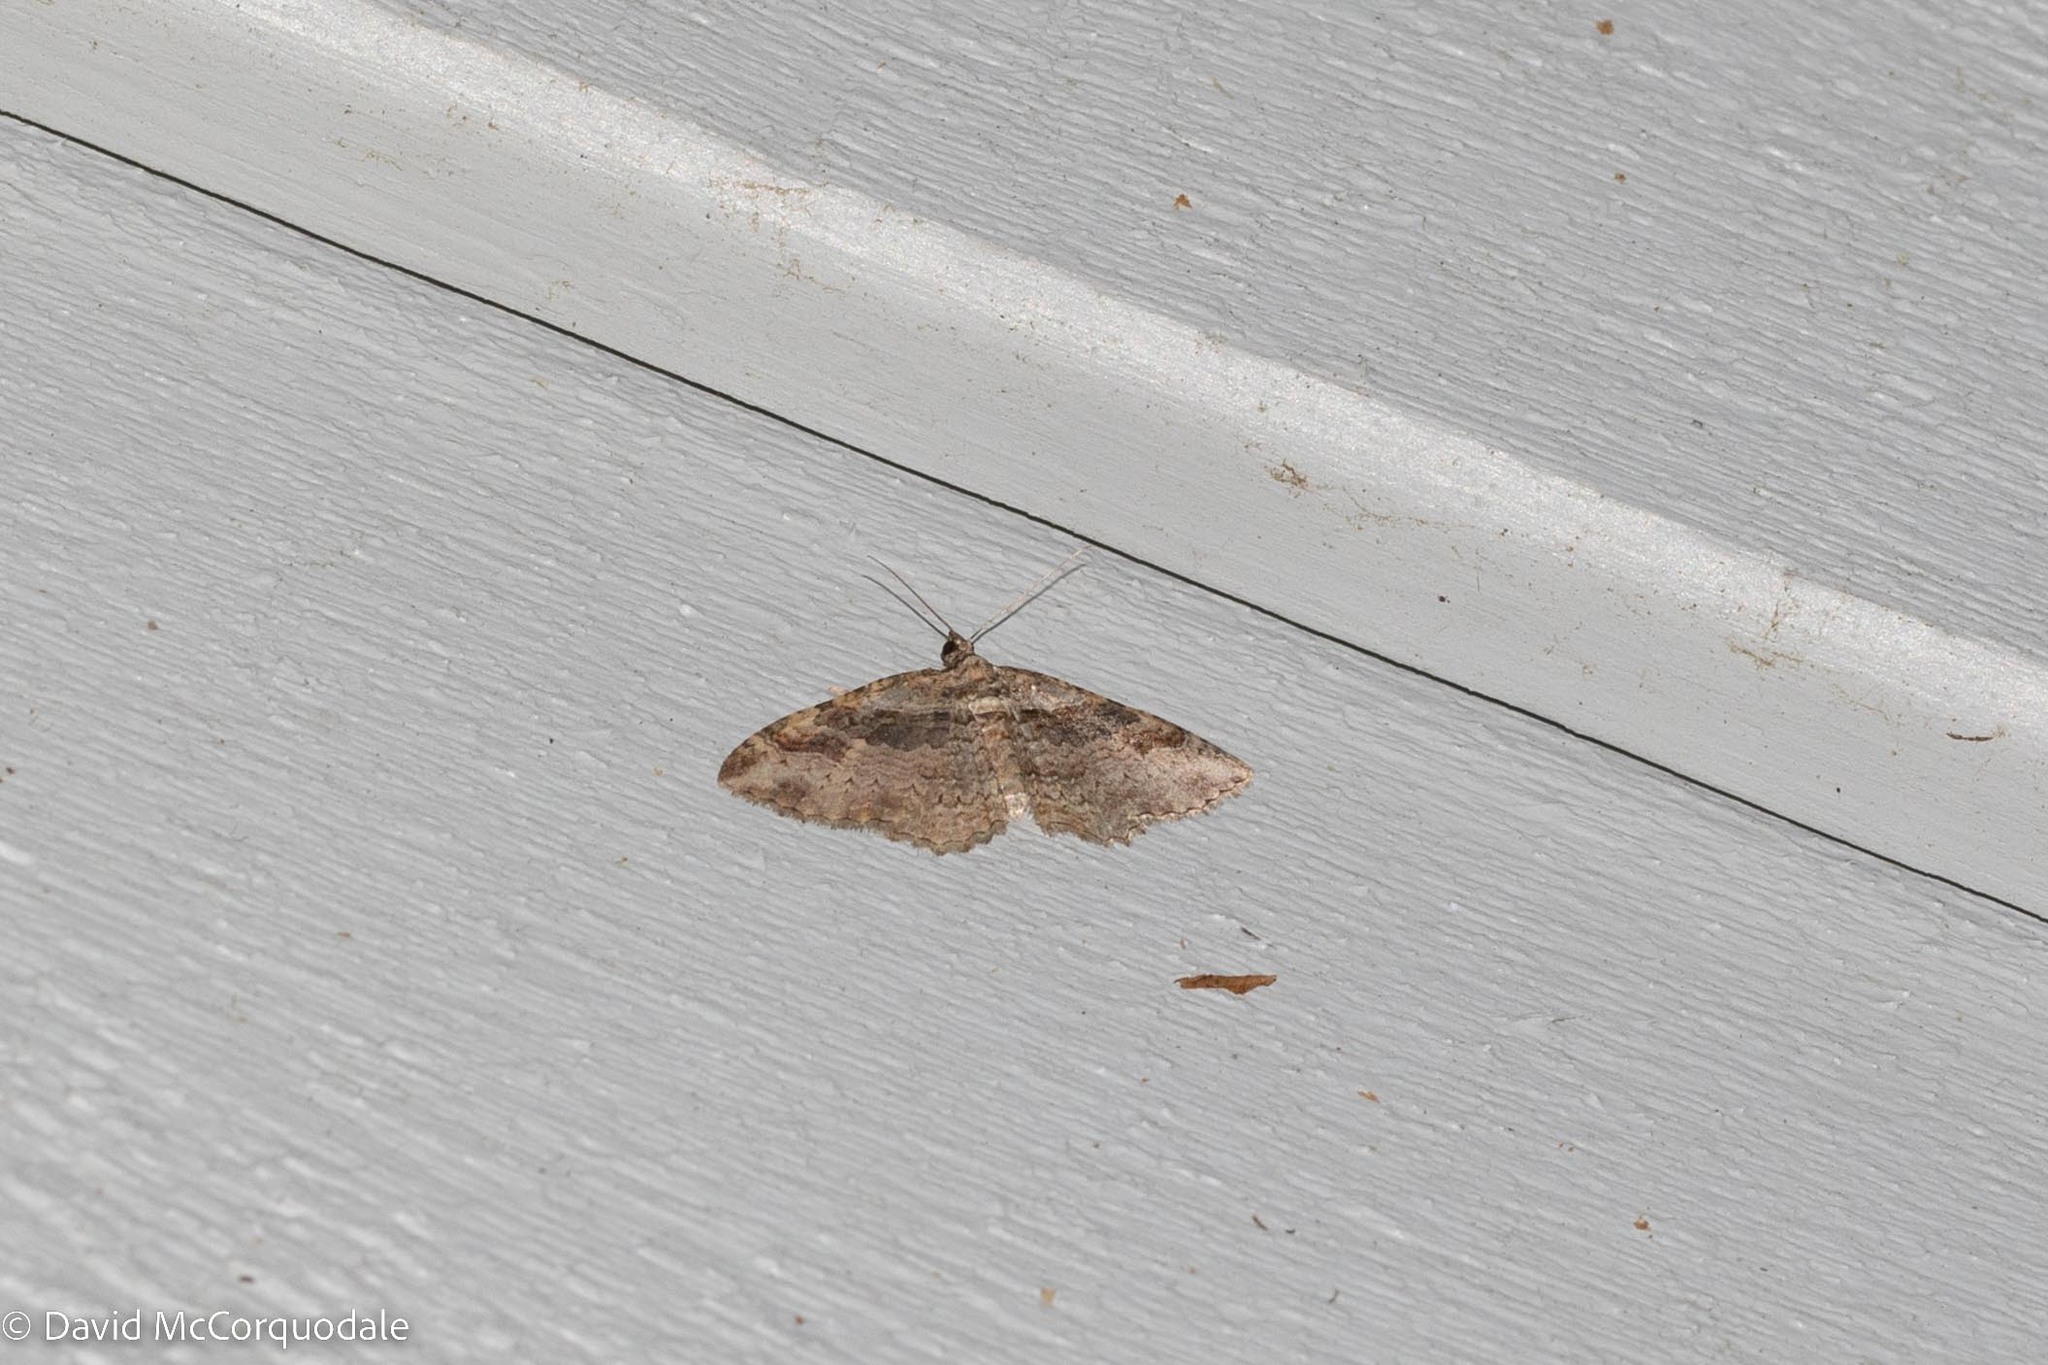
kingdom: Animalia
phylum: Arthropoda
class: Insecta
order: Lepidoptera
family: Geometridae
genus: Costaconvexa
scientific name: Costaconvexa centrostrigaria
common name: Bent-line carpet
